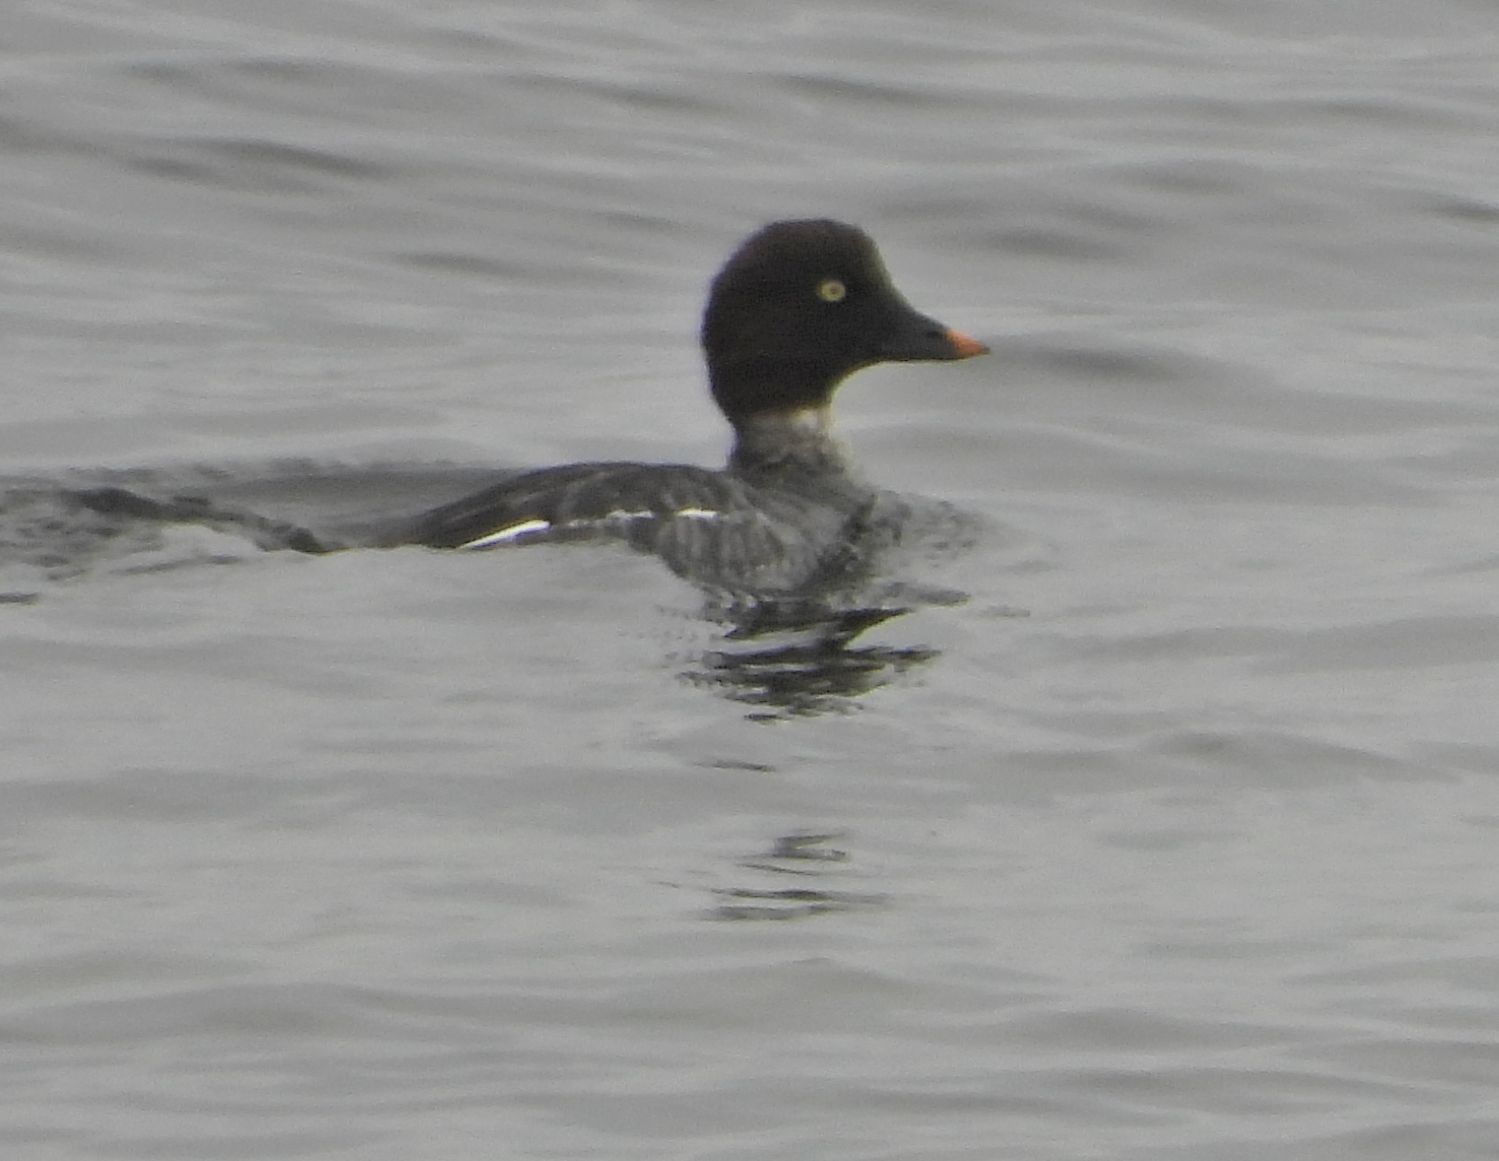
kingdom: Animalia
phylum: Chordata
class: Aves
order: Anseriformes
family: Anatidae
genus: Bucephala
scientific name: Bucephala clangula
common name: Common goldeneye
